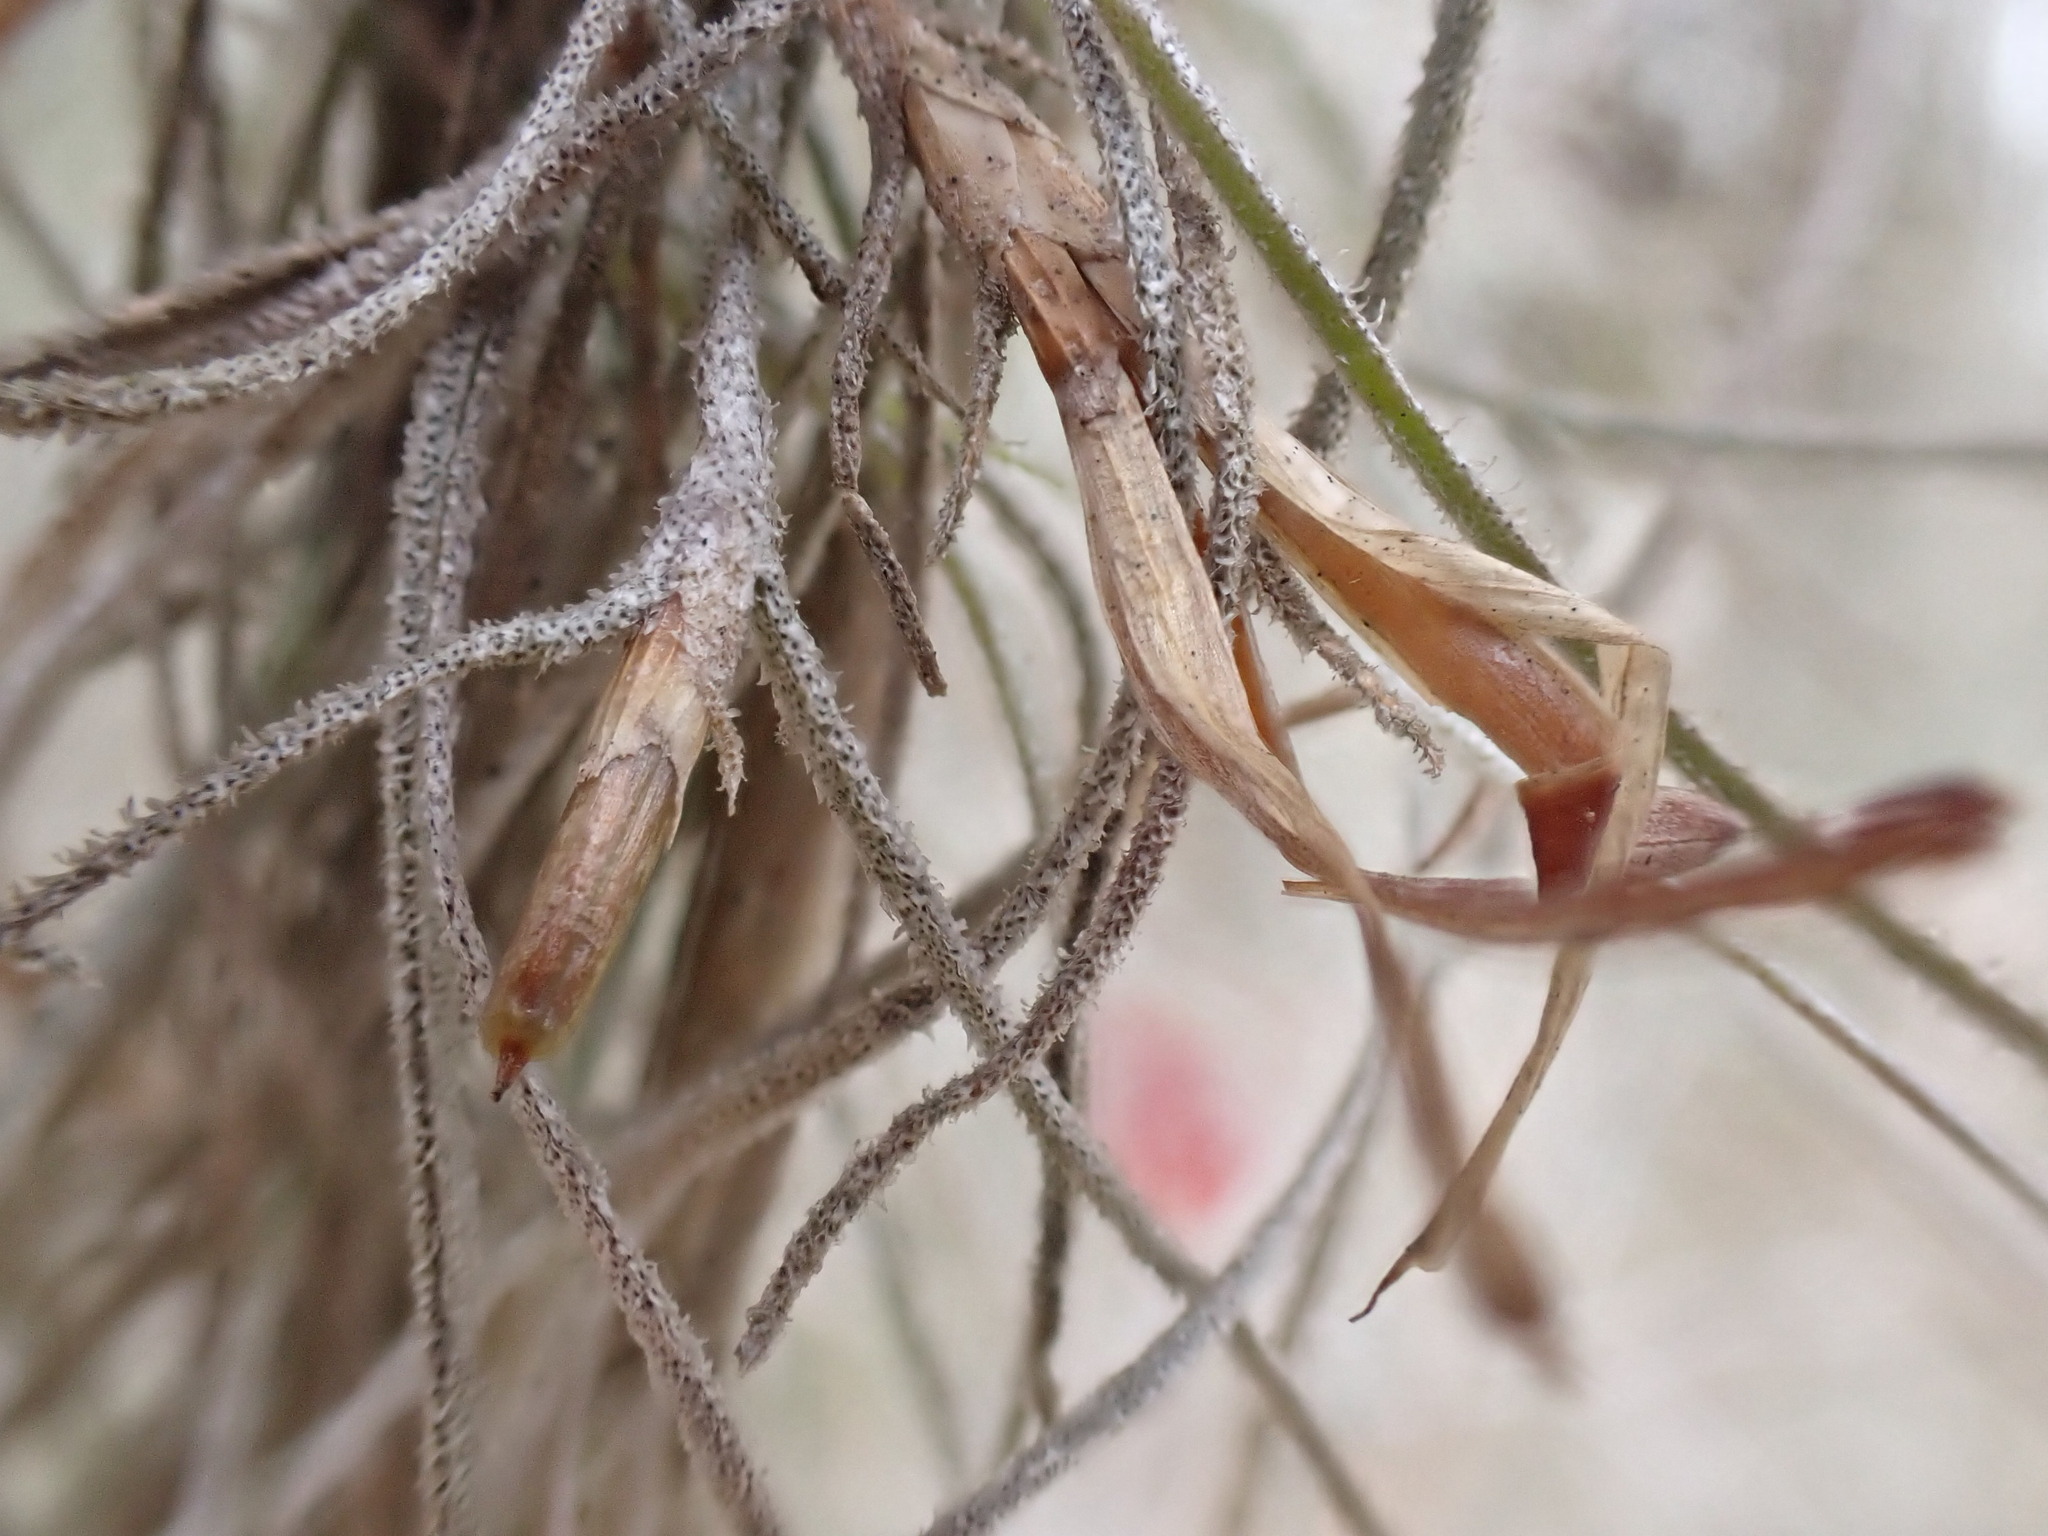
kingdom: Plantae
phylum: Tracheophyta
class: Liliopsida
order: Poales
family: Bromeliaceae
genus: Tillandsia
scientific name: Tillandsia usneoides
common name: Spanish moss
